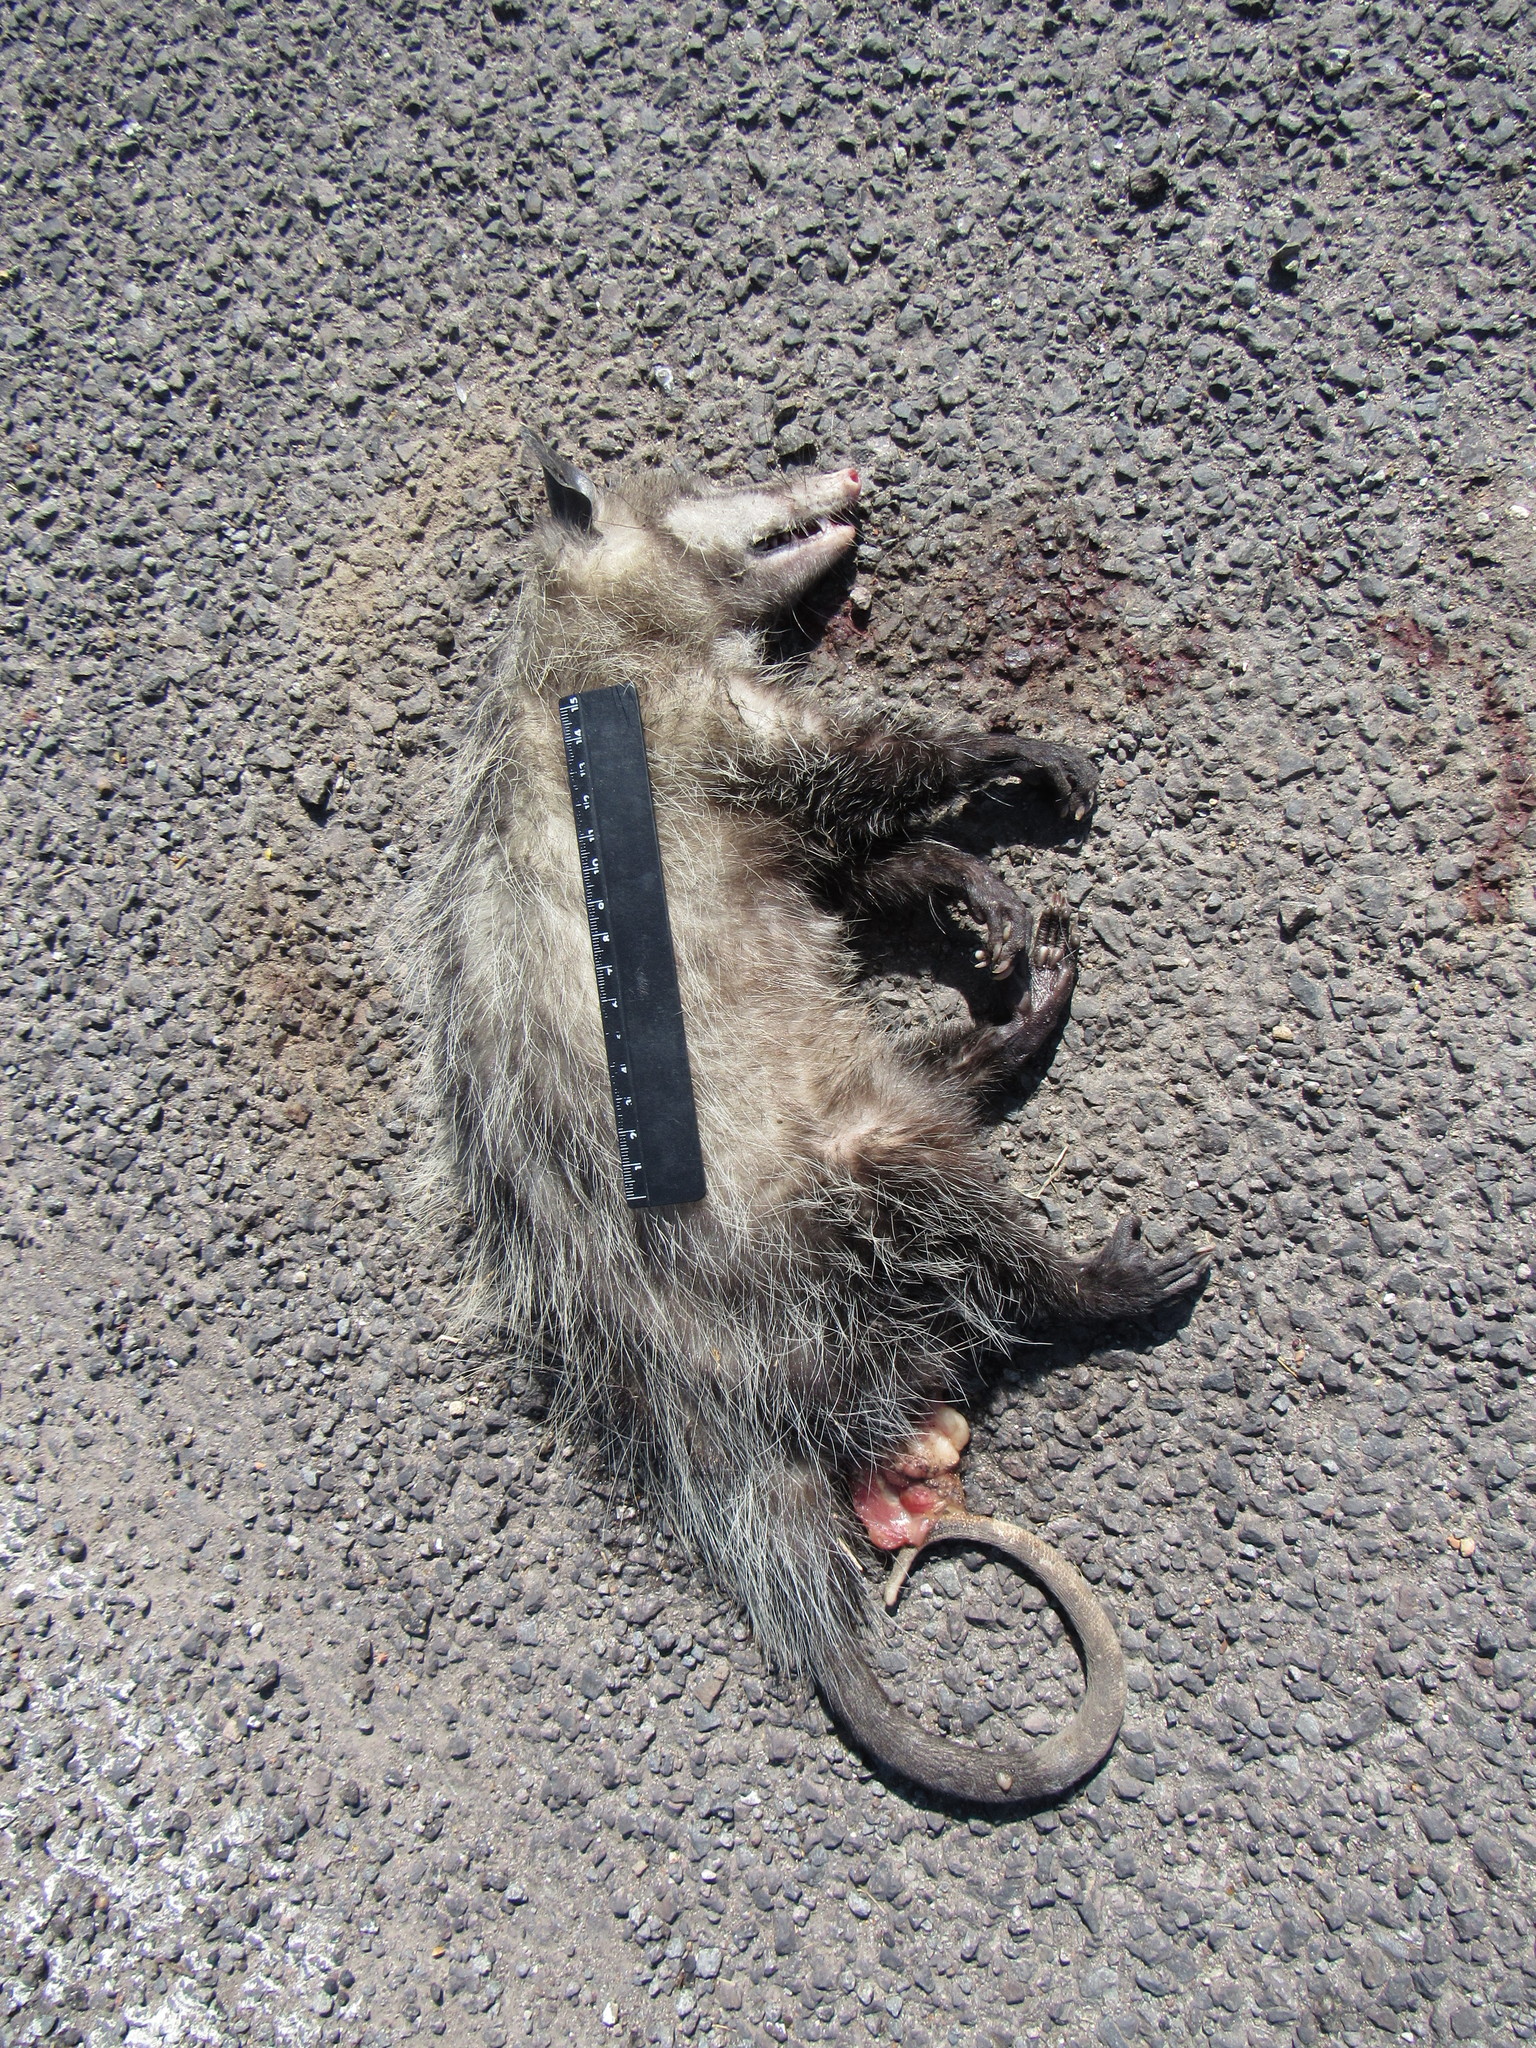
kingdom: Animalia
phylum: Chordata
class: Mammalia
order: Didelphimorphia
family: Didelphidae
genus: Didelphis
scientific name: Didelphis virginiana
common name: Virginia opossum
